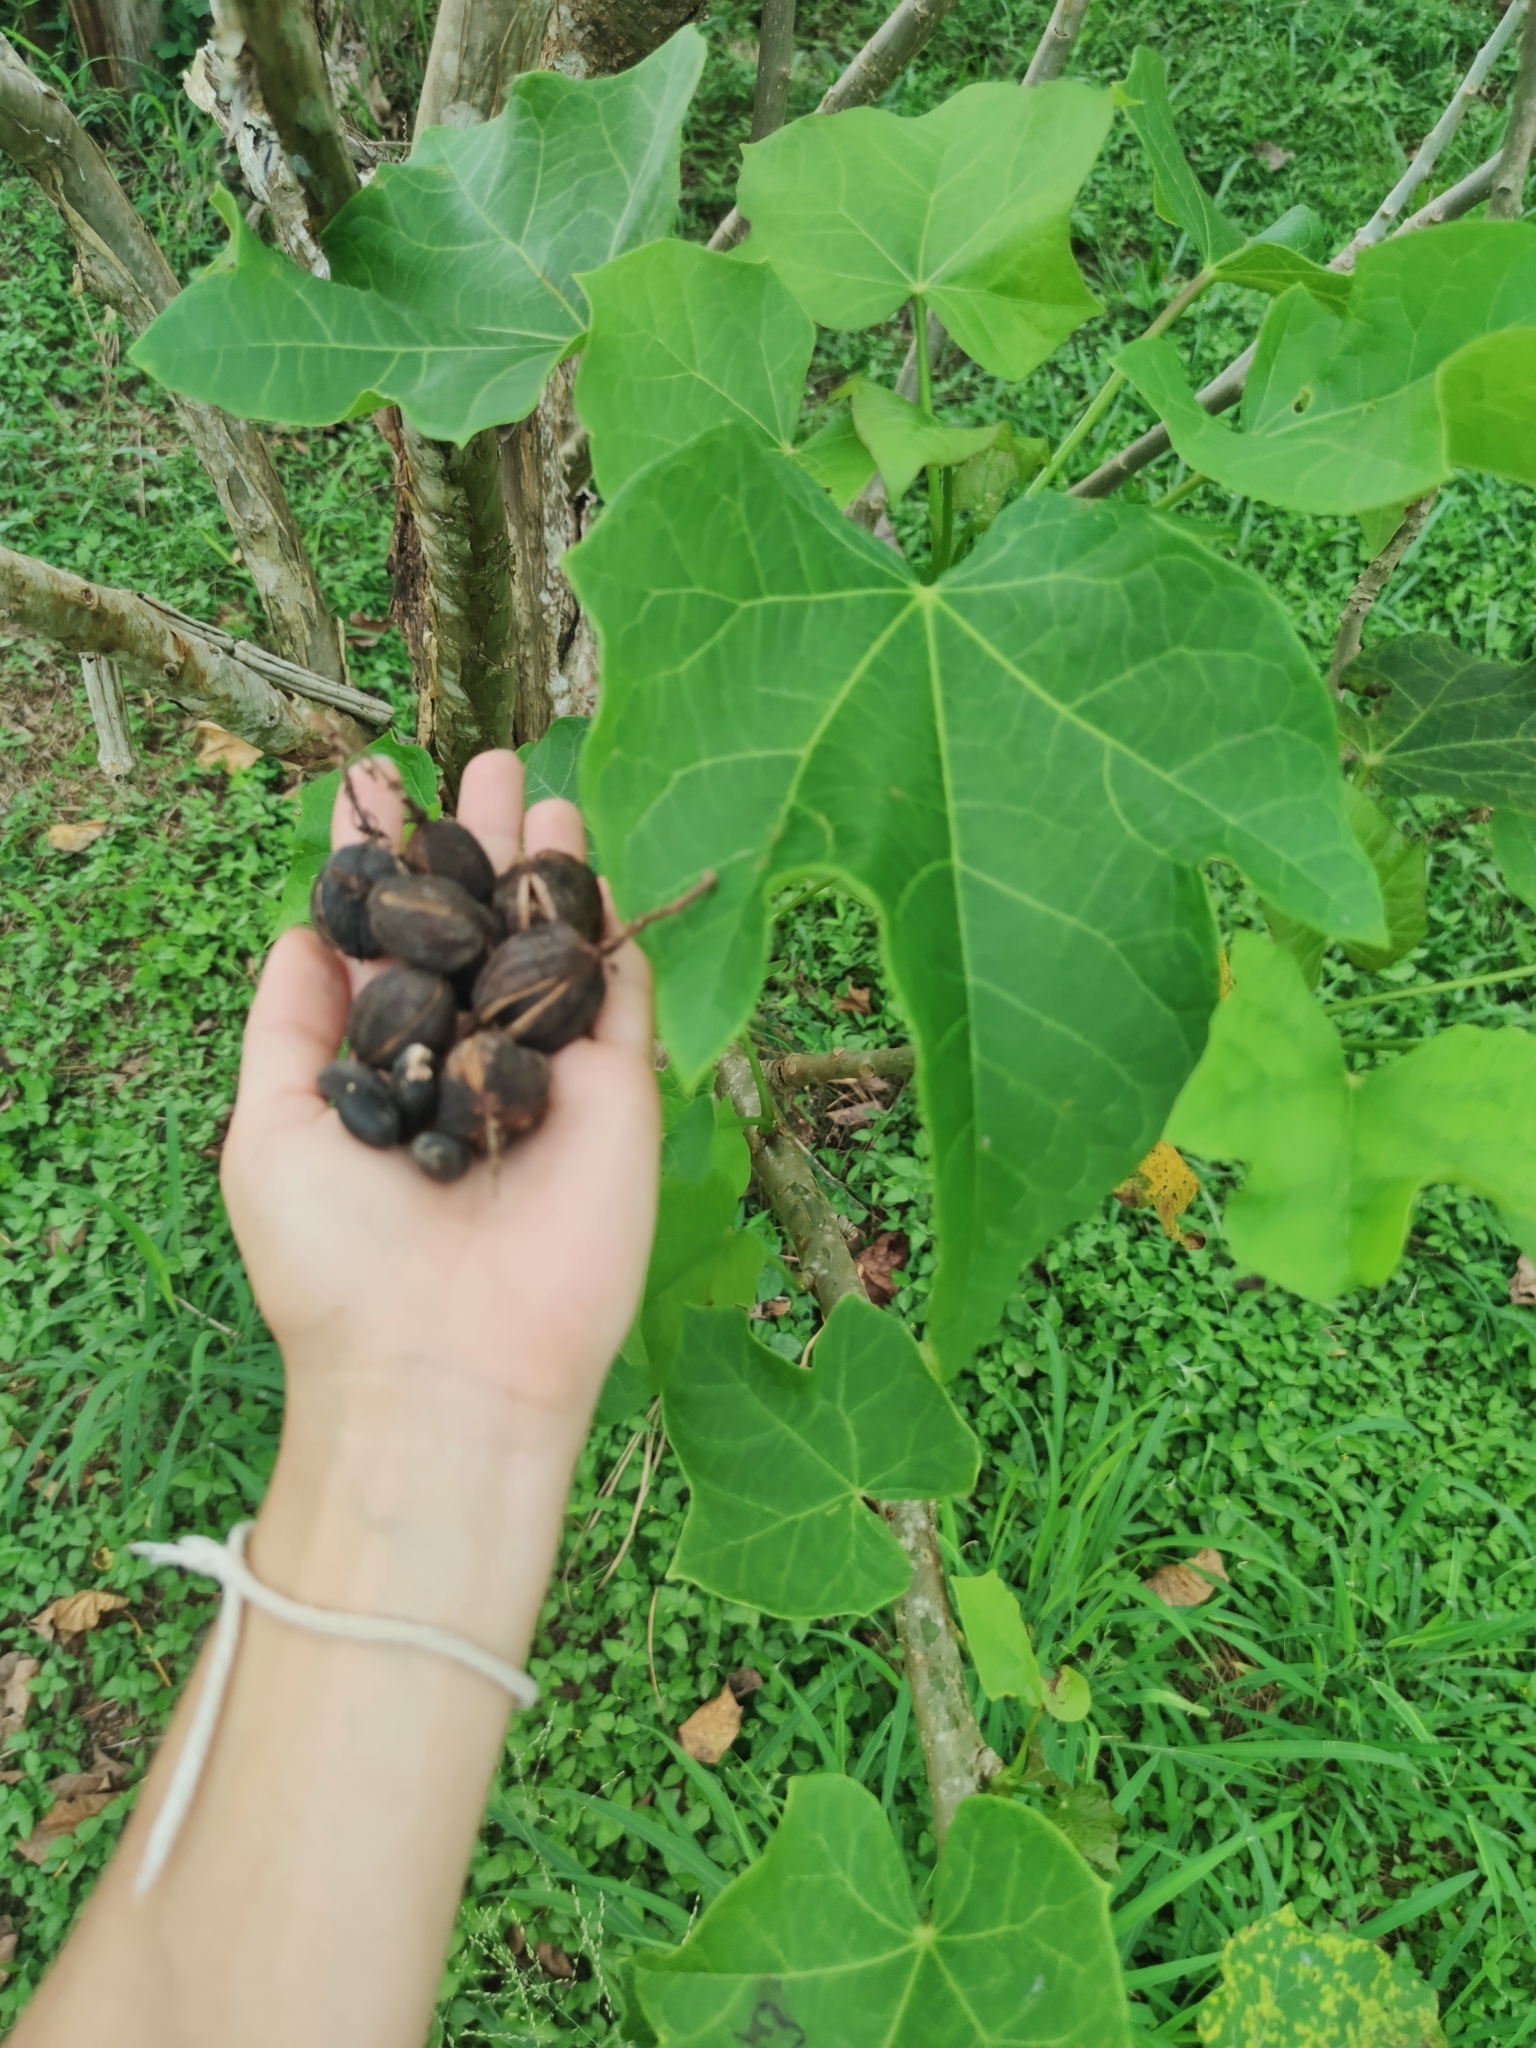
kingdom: Plantae
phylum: Tracheophyta
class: Magnoliopsida
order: Malpighiales
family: Euphorbiaceae
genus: Jatropha
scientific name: Jatropha curcas
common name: Barbados nut
